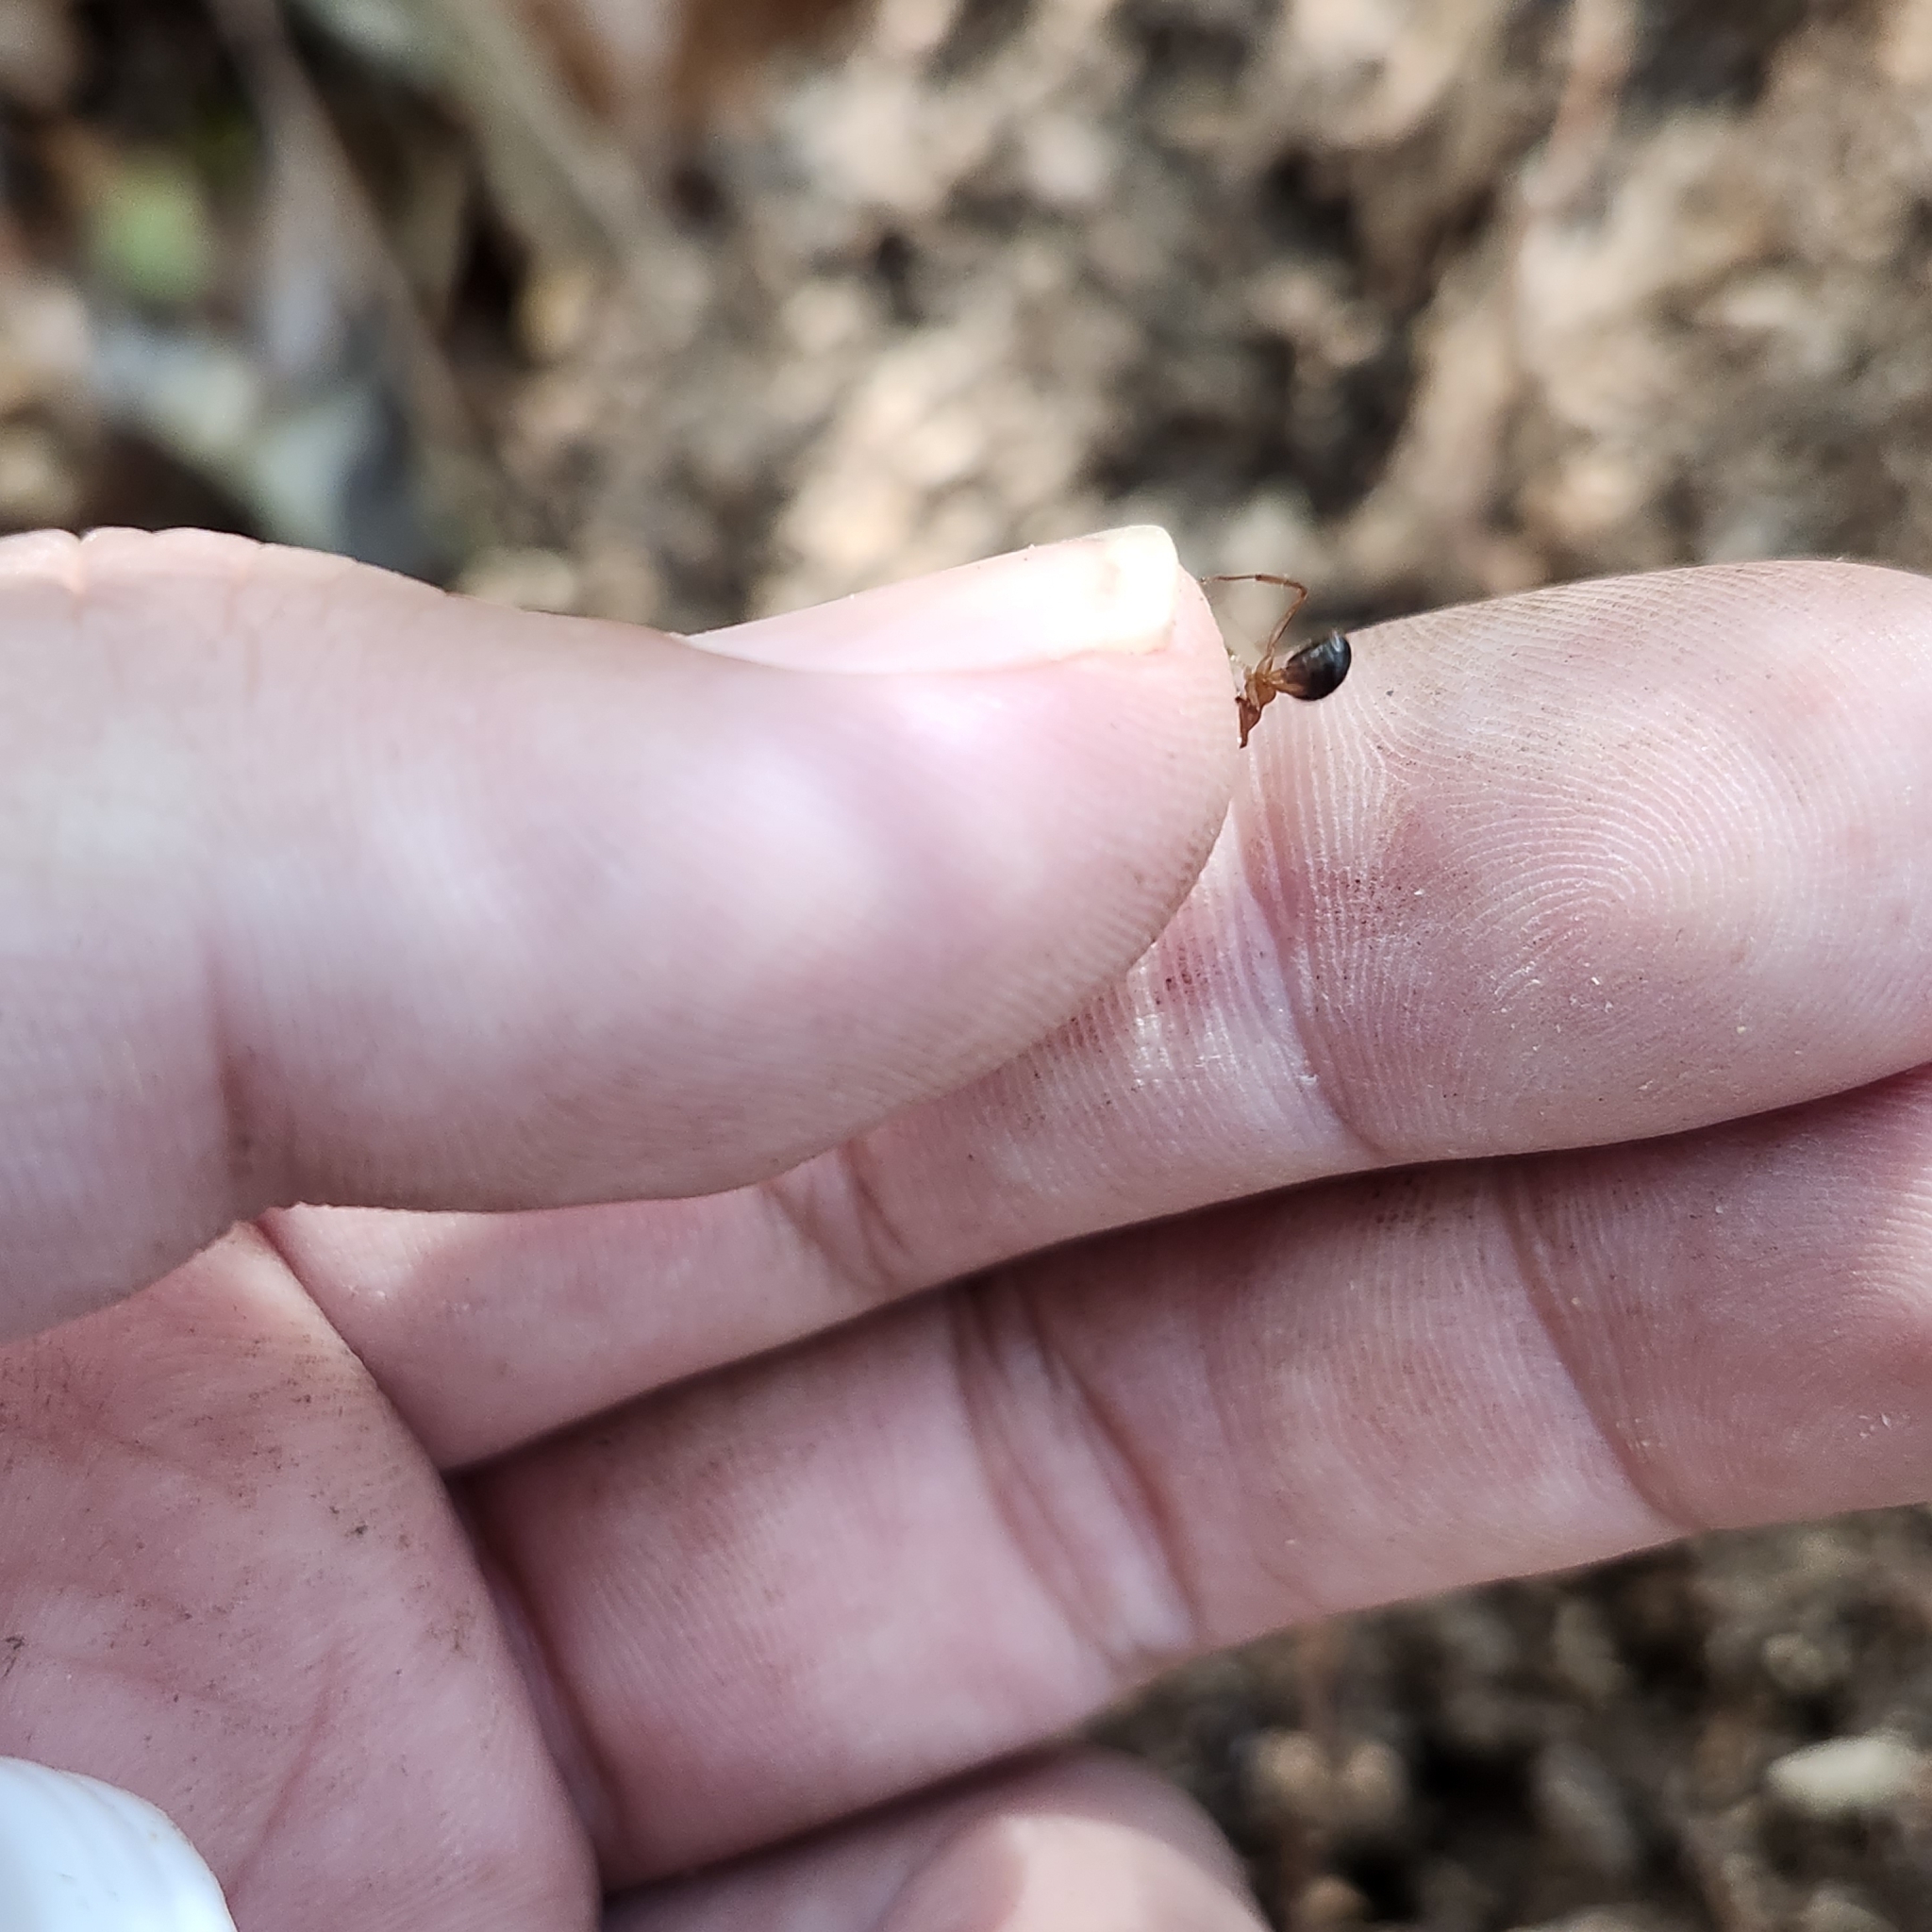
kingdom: Animalia
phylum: Arthropoda
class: Insecta
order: Hymenoptera
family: Formicidae
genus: Formica
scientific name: Formica exsectoides
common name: Allegheny mound ant
